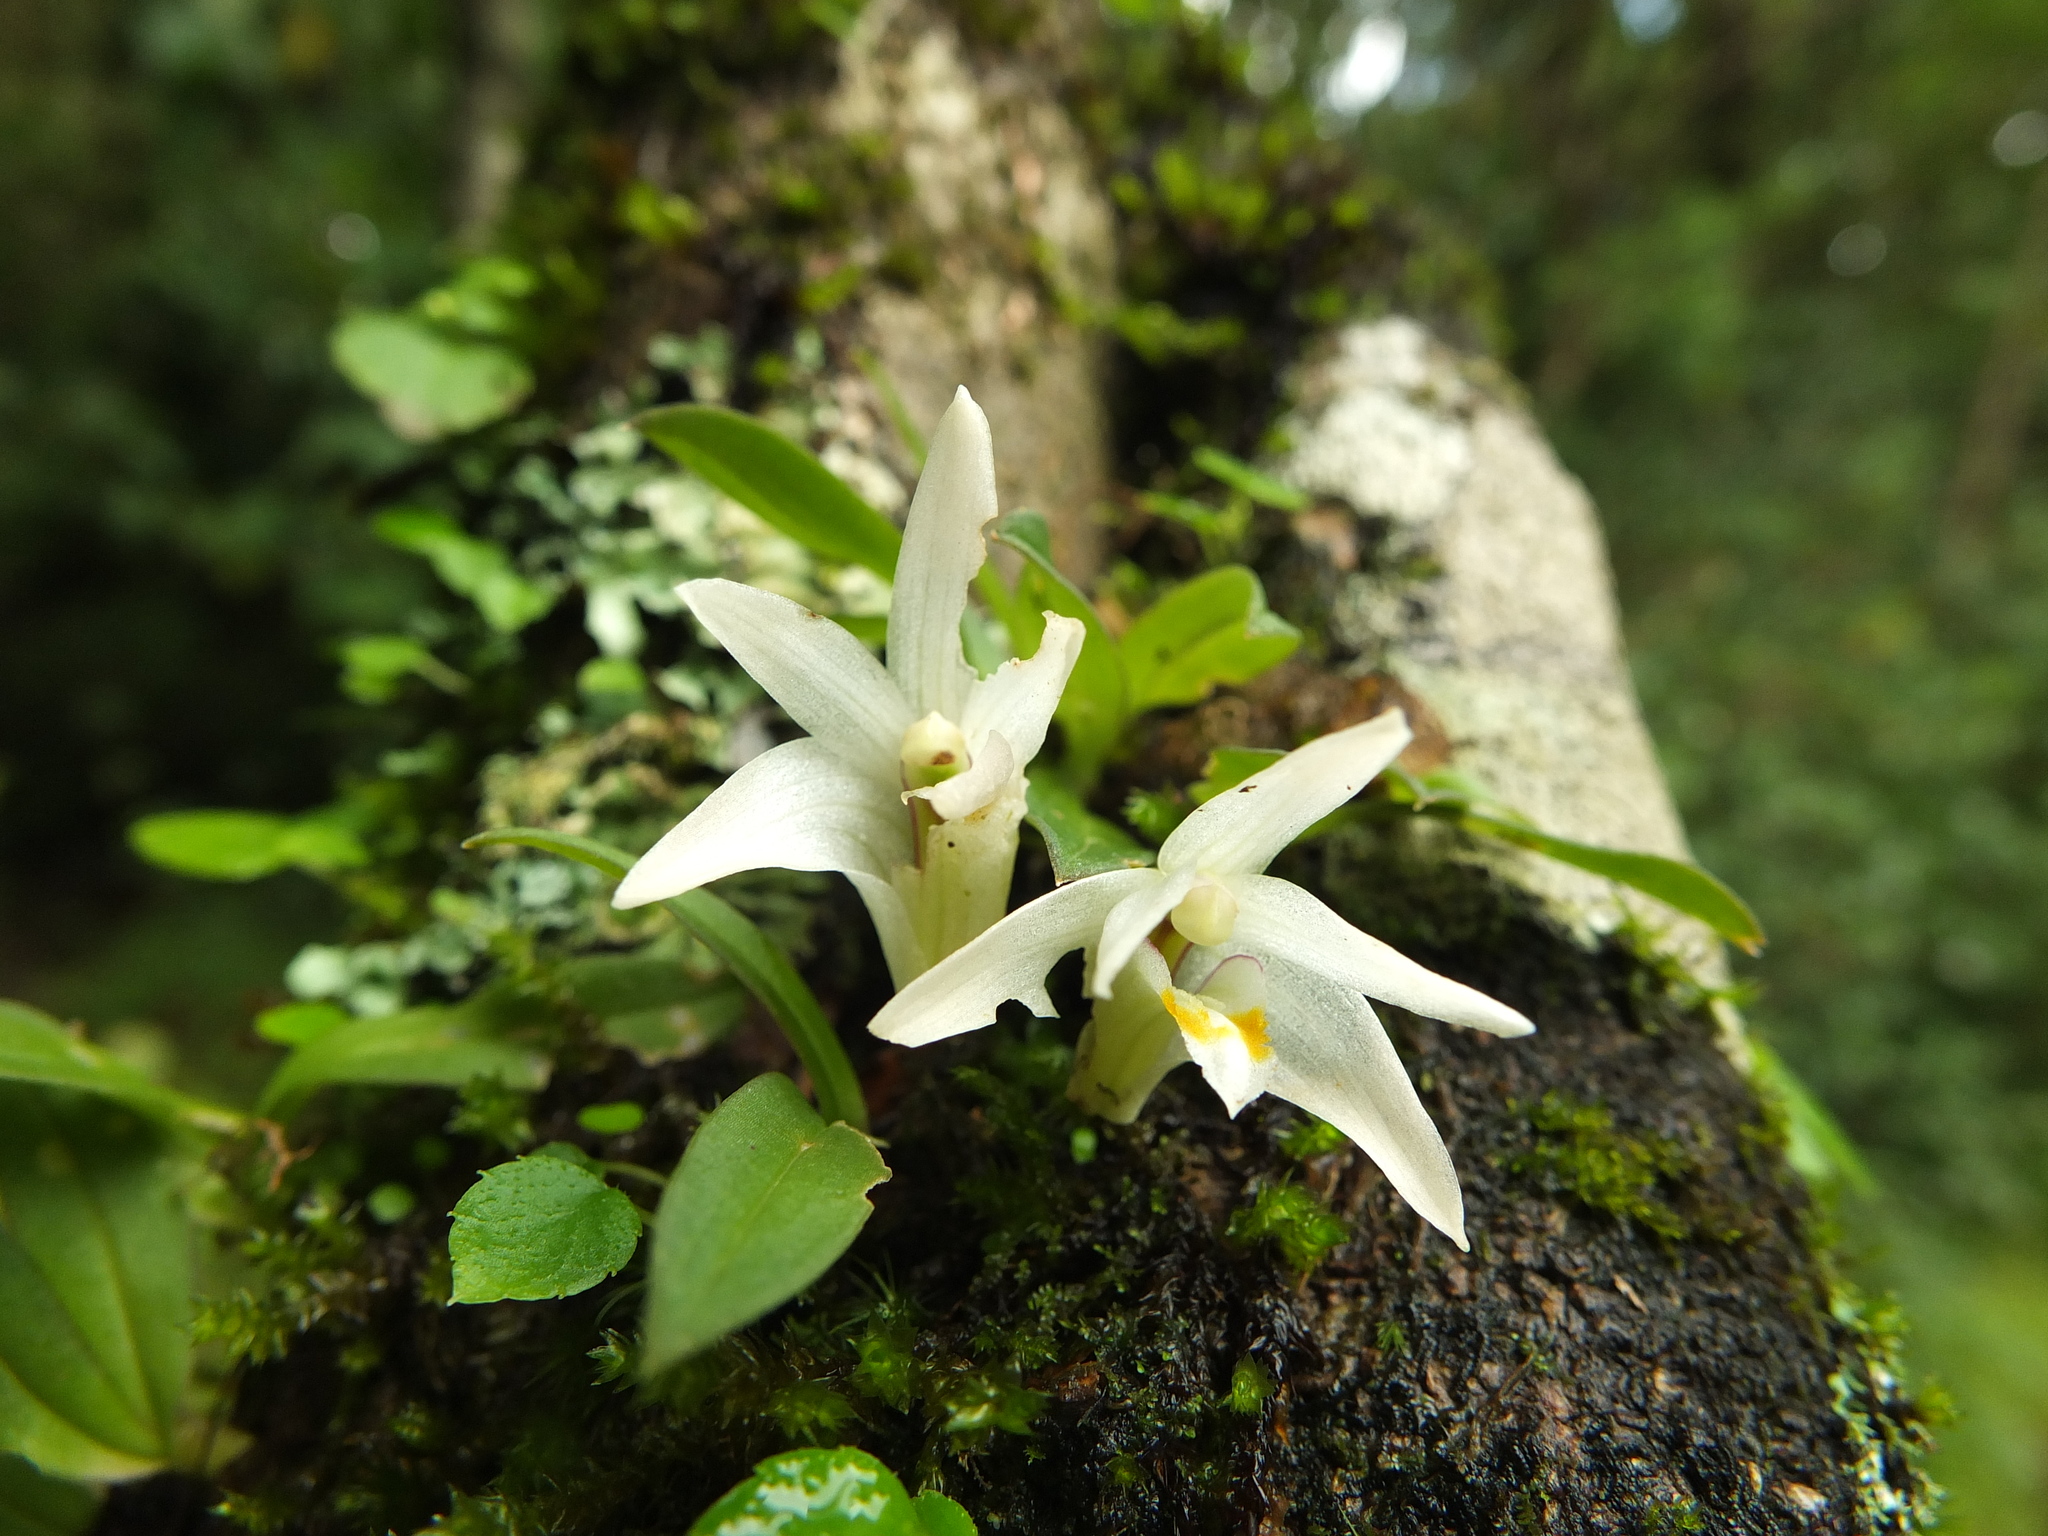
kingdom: Plantae
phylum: Tracheophyta
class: Liliopsida
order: Asparagales
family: Orchidaceae
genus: Porpax
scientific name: Porpax braccata
